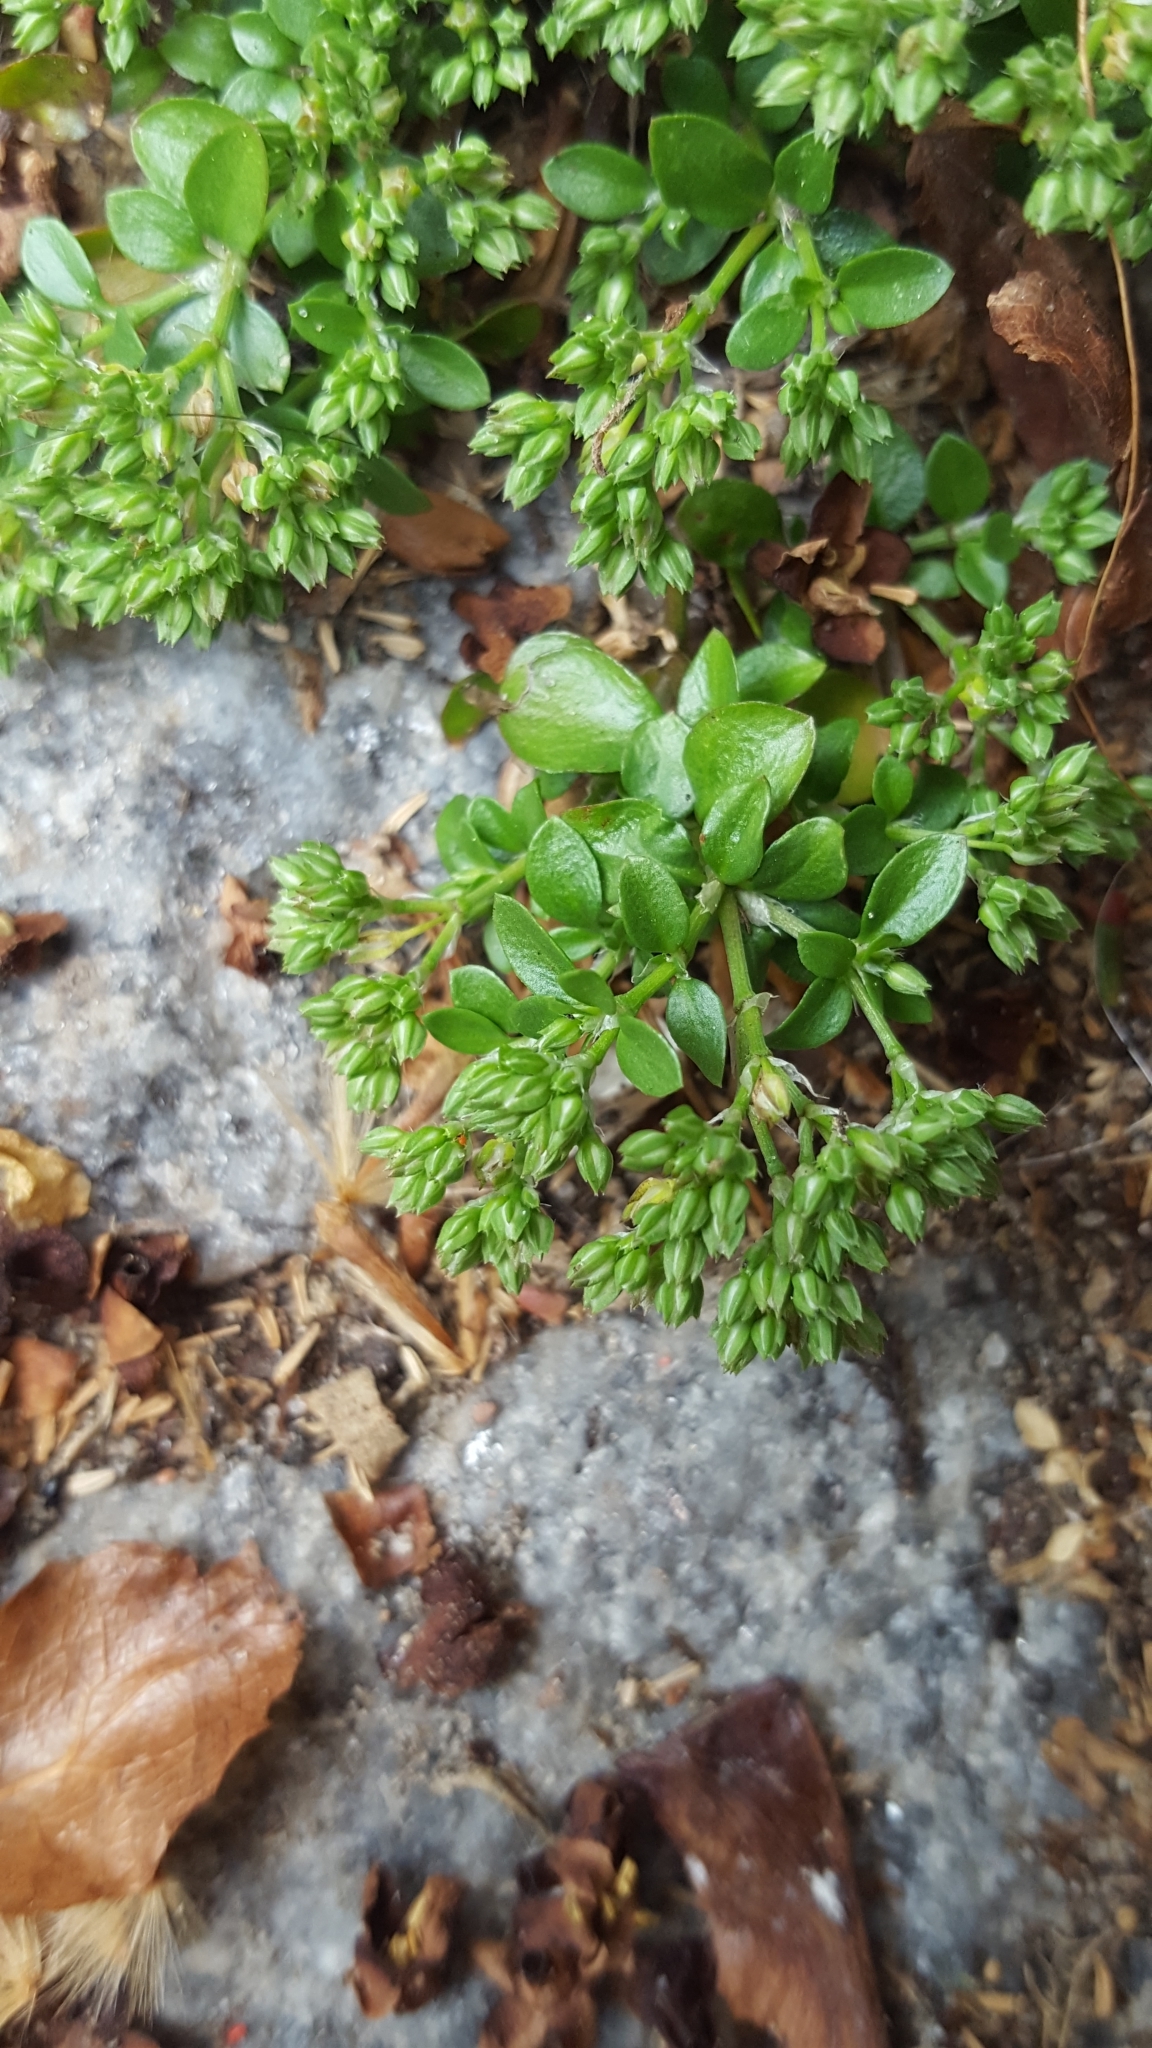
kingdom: Plantae
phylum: Tracheophyta
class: Magnoliopsida
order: Caryophyllales
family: Caryophyllaceae
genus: Polycarpon
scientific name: Polycarpon tetraphyllum
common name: Four-leaved all-seed
